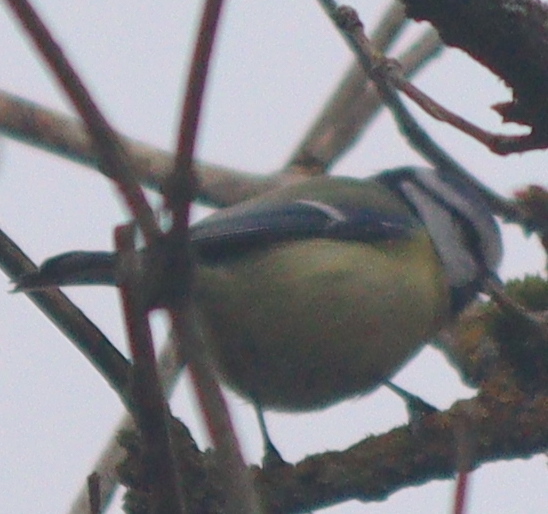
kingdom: Animalia
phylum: Chordata
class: Aves
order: Passeriformes
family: Paridae
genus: Cyanistes
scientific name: Cyanistes caeruleus
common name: Eurasian blue tit
